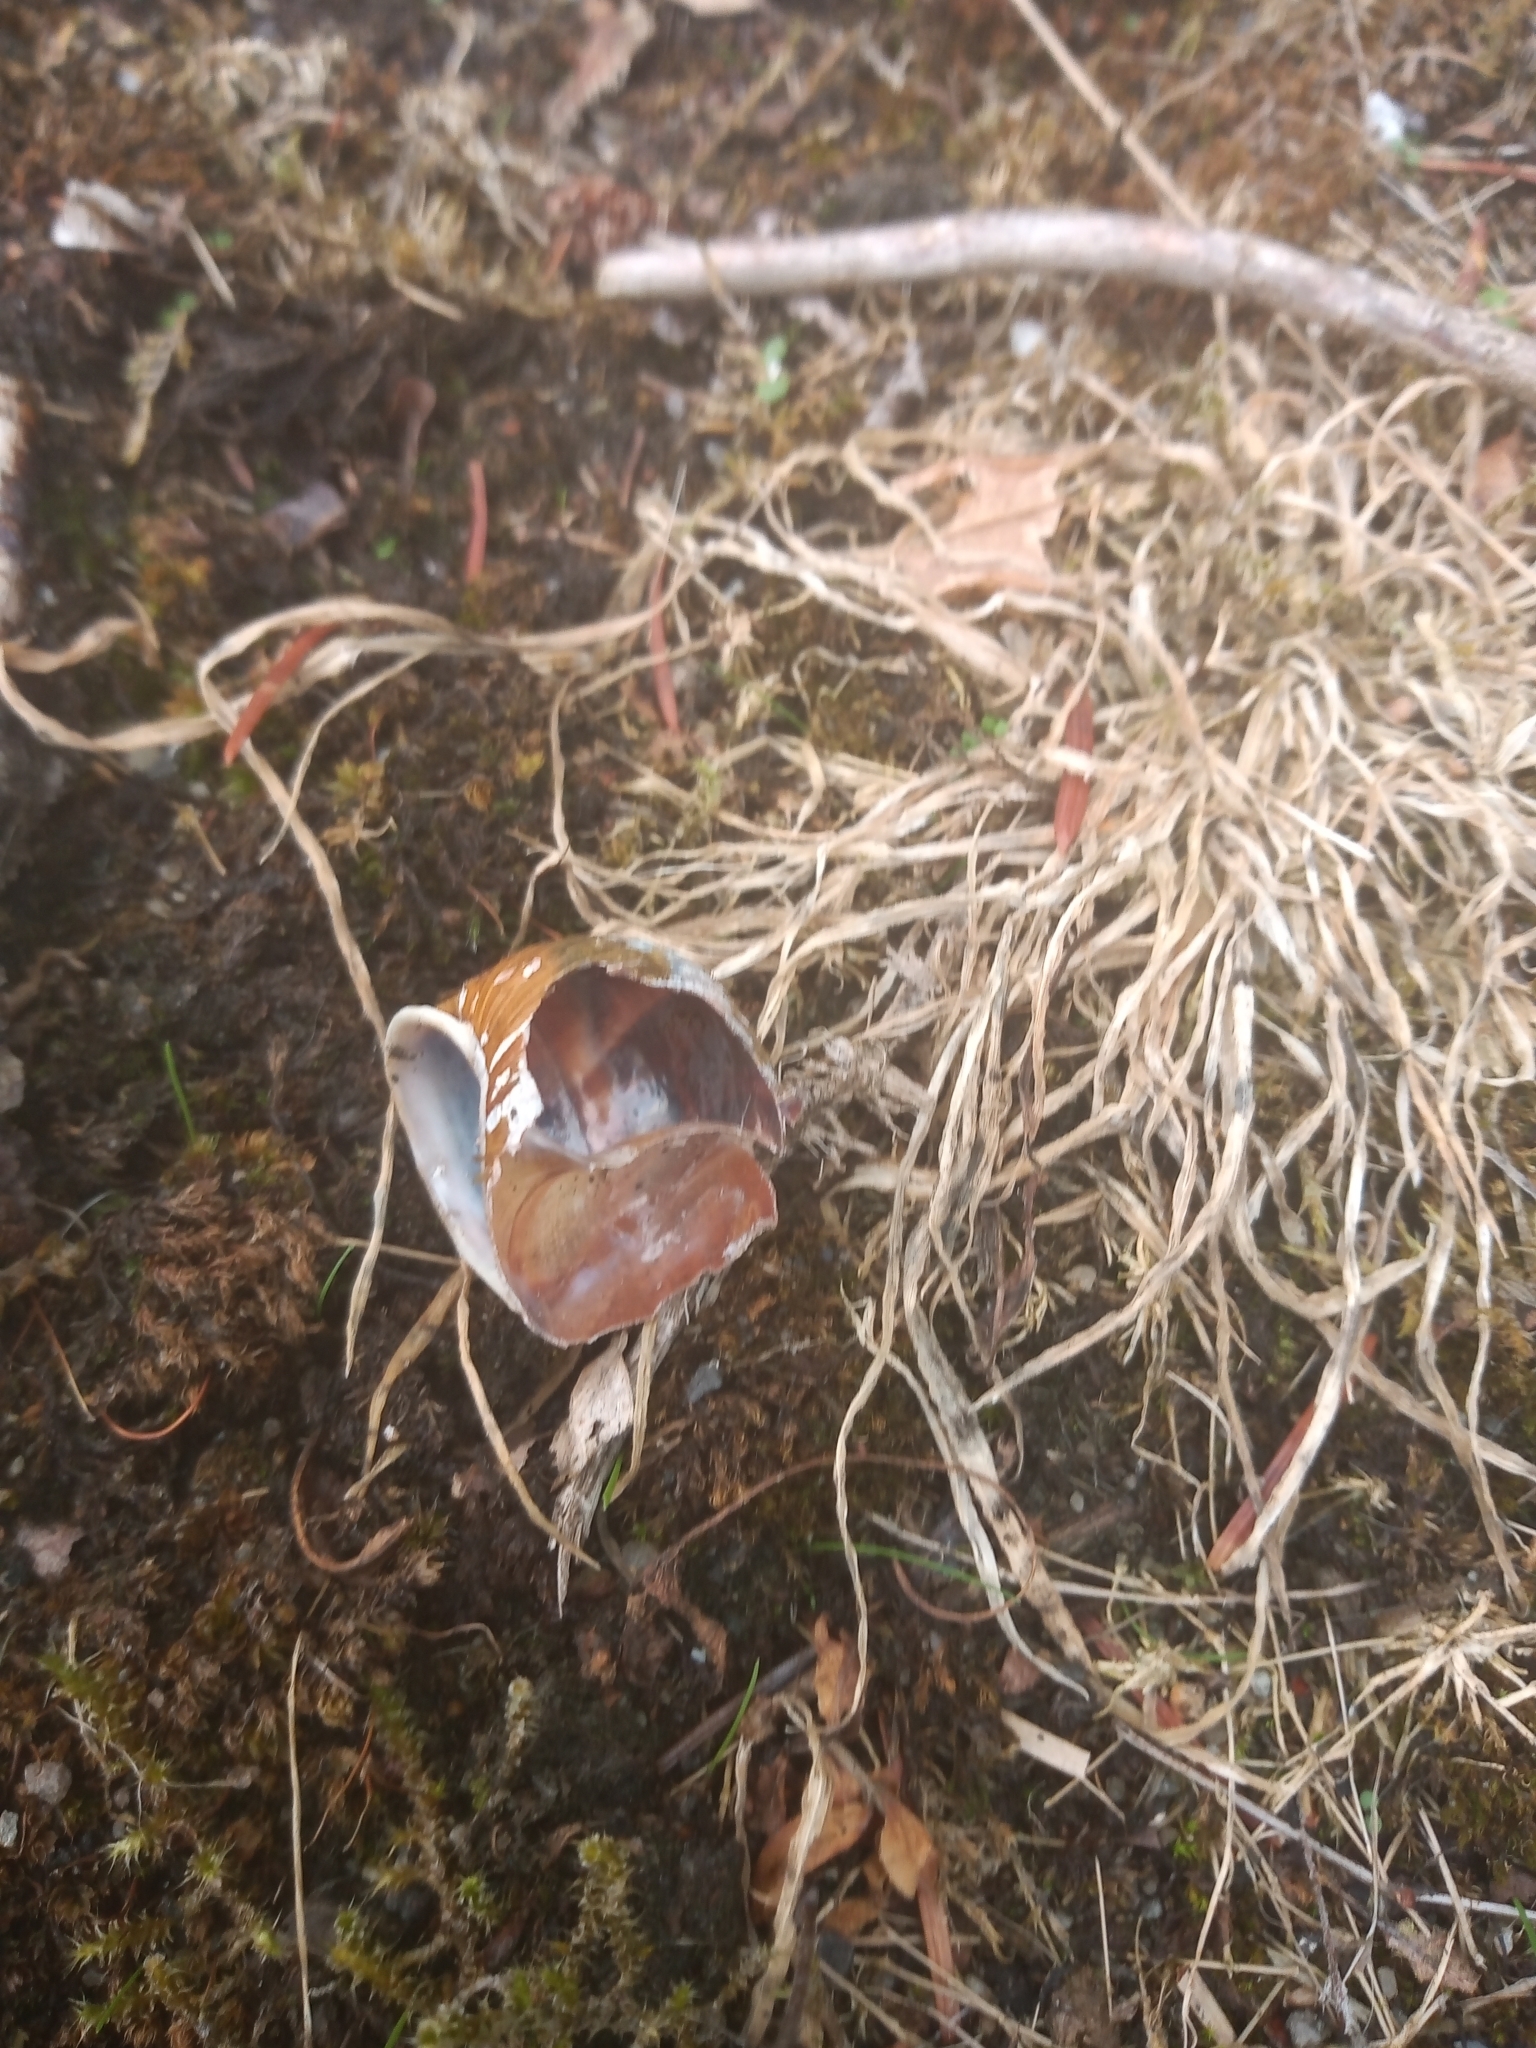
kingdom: Animalia
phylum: Mollusca
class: Gastropoda
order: Stylommatophora
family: Helicidae
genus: Cornu
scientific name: Cornu aspersum
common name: Brown garden snail
